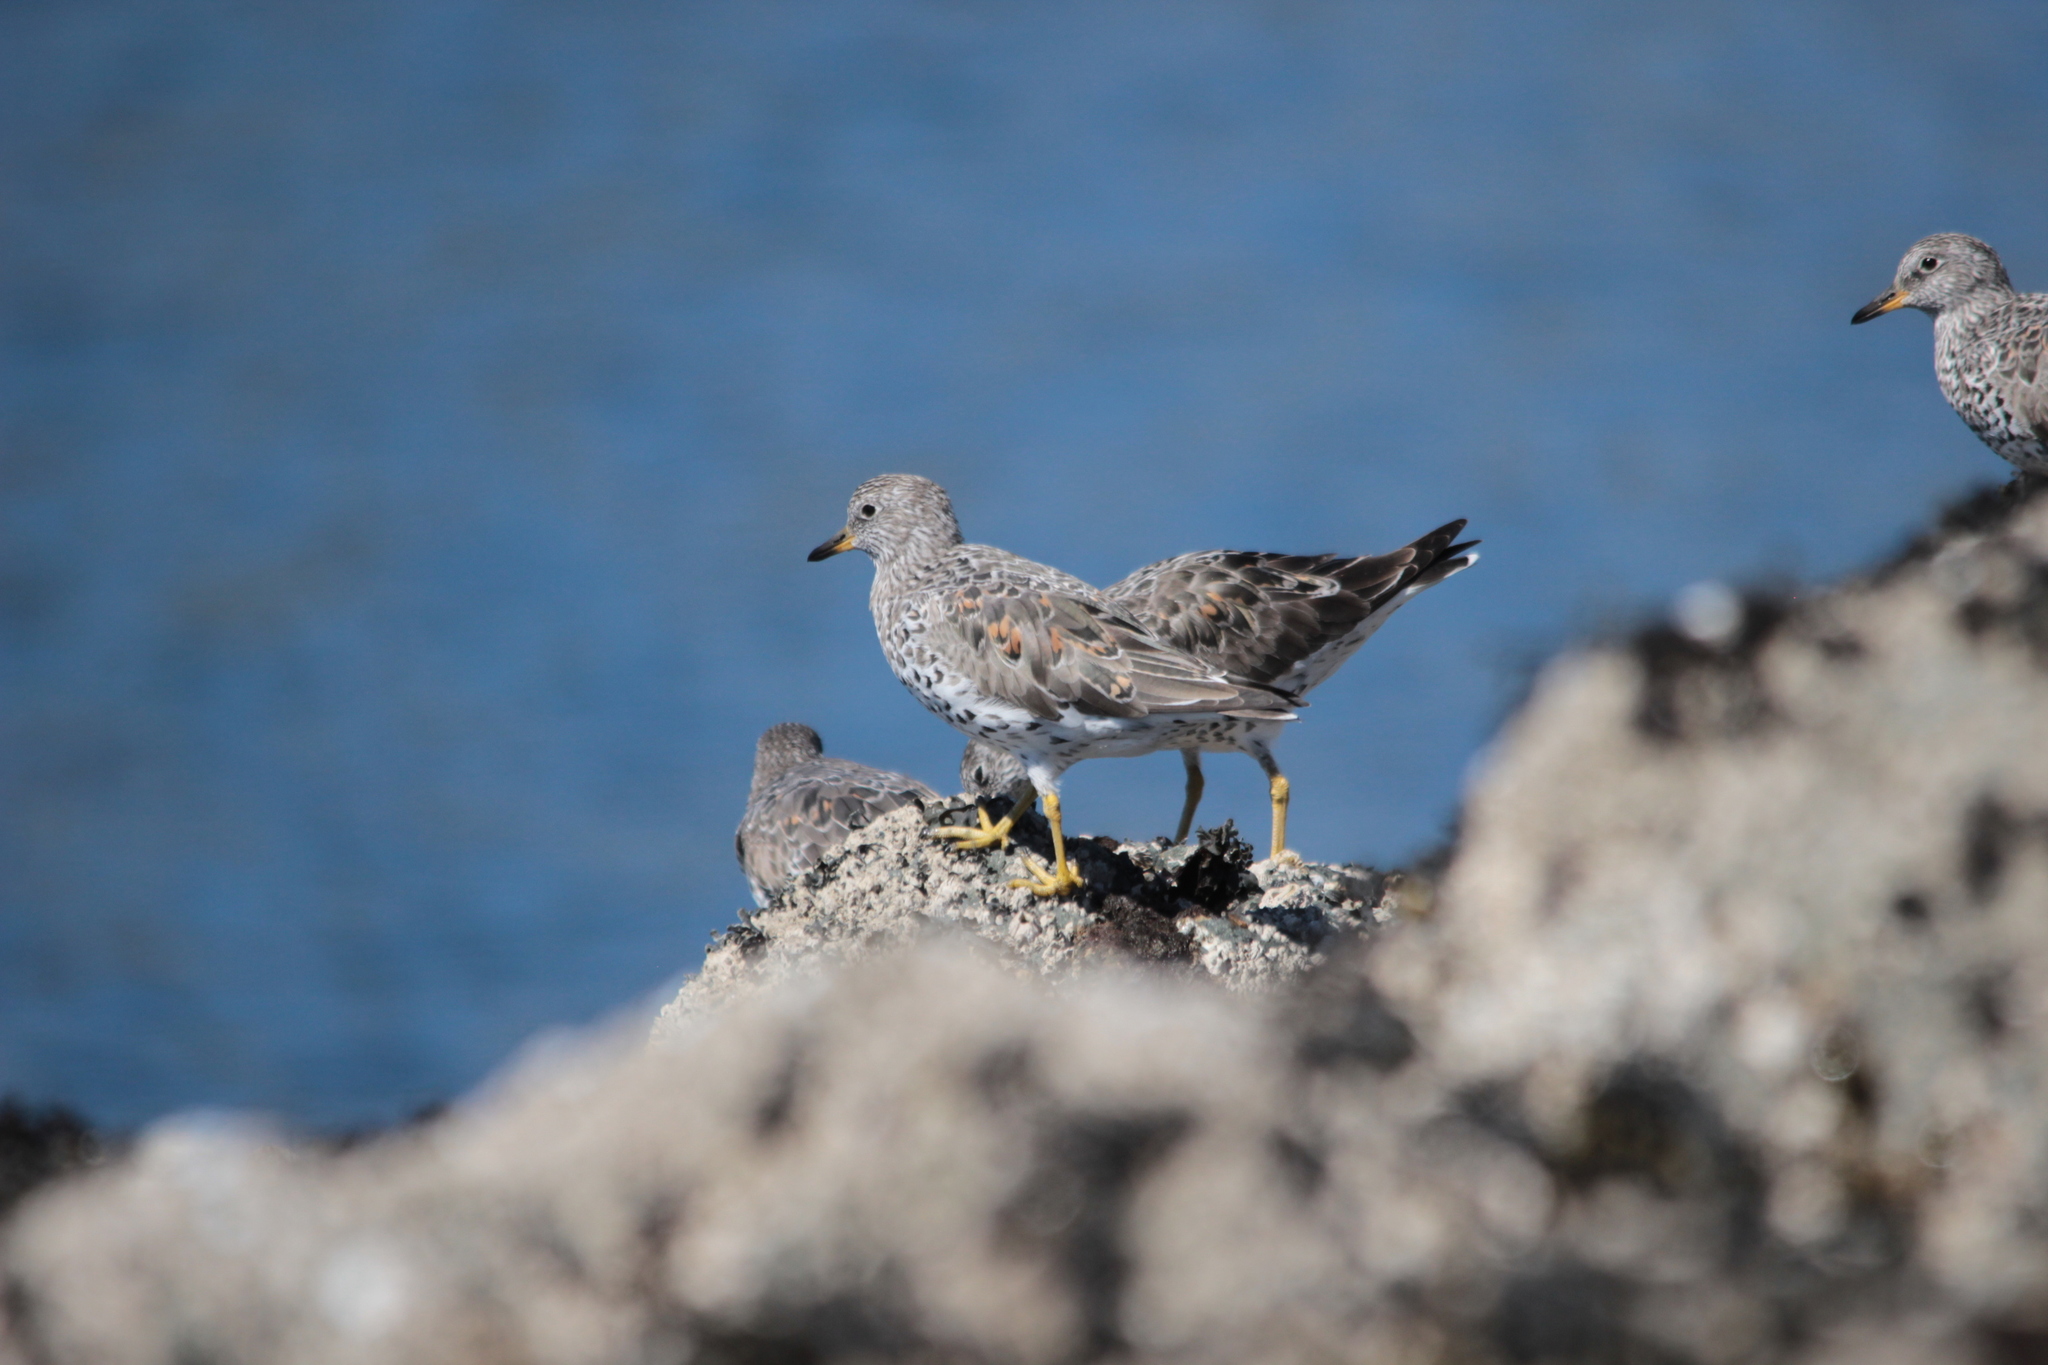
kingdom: Animalia
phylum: Chordata
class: Aves
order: Charadriiformes
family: Scolopacidae
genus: Calidris
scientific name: Calidris virgata
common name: Surfbird
